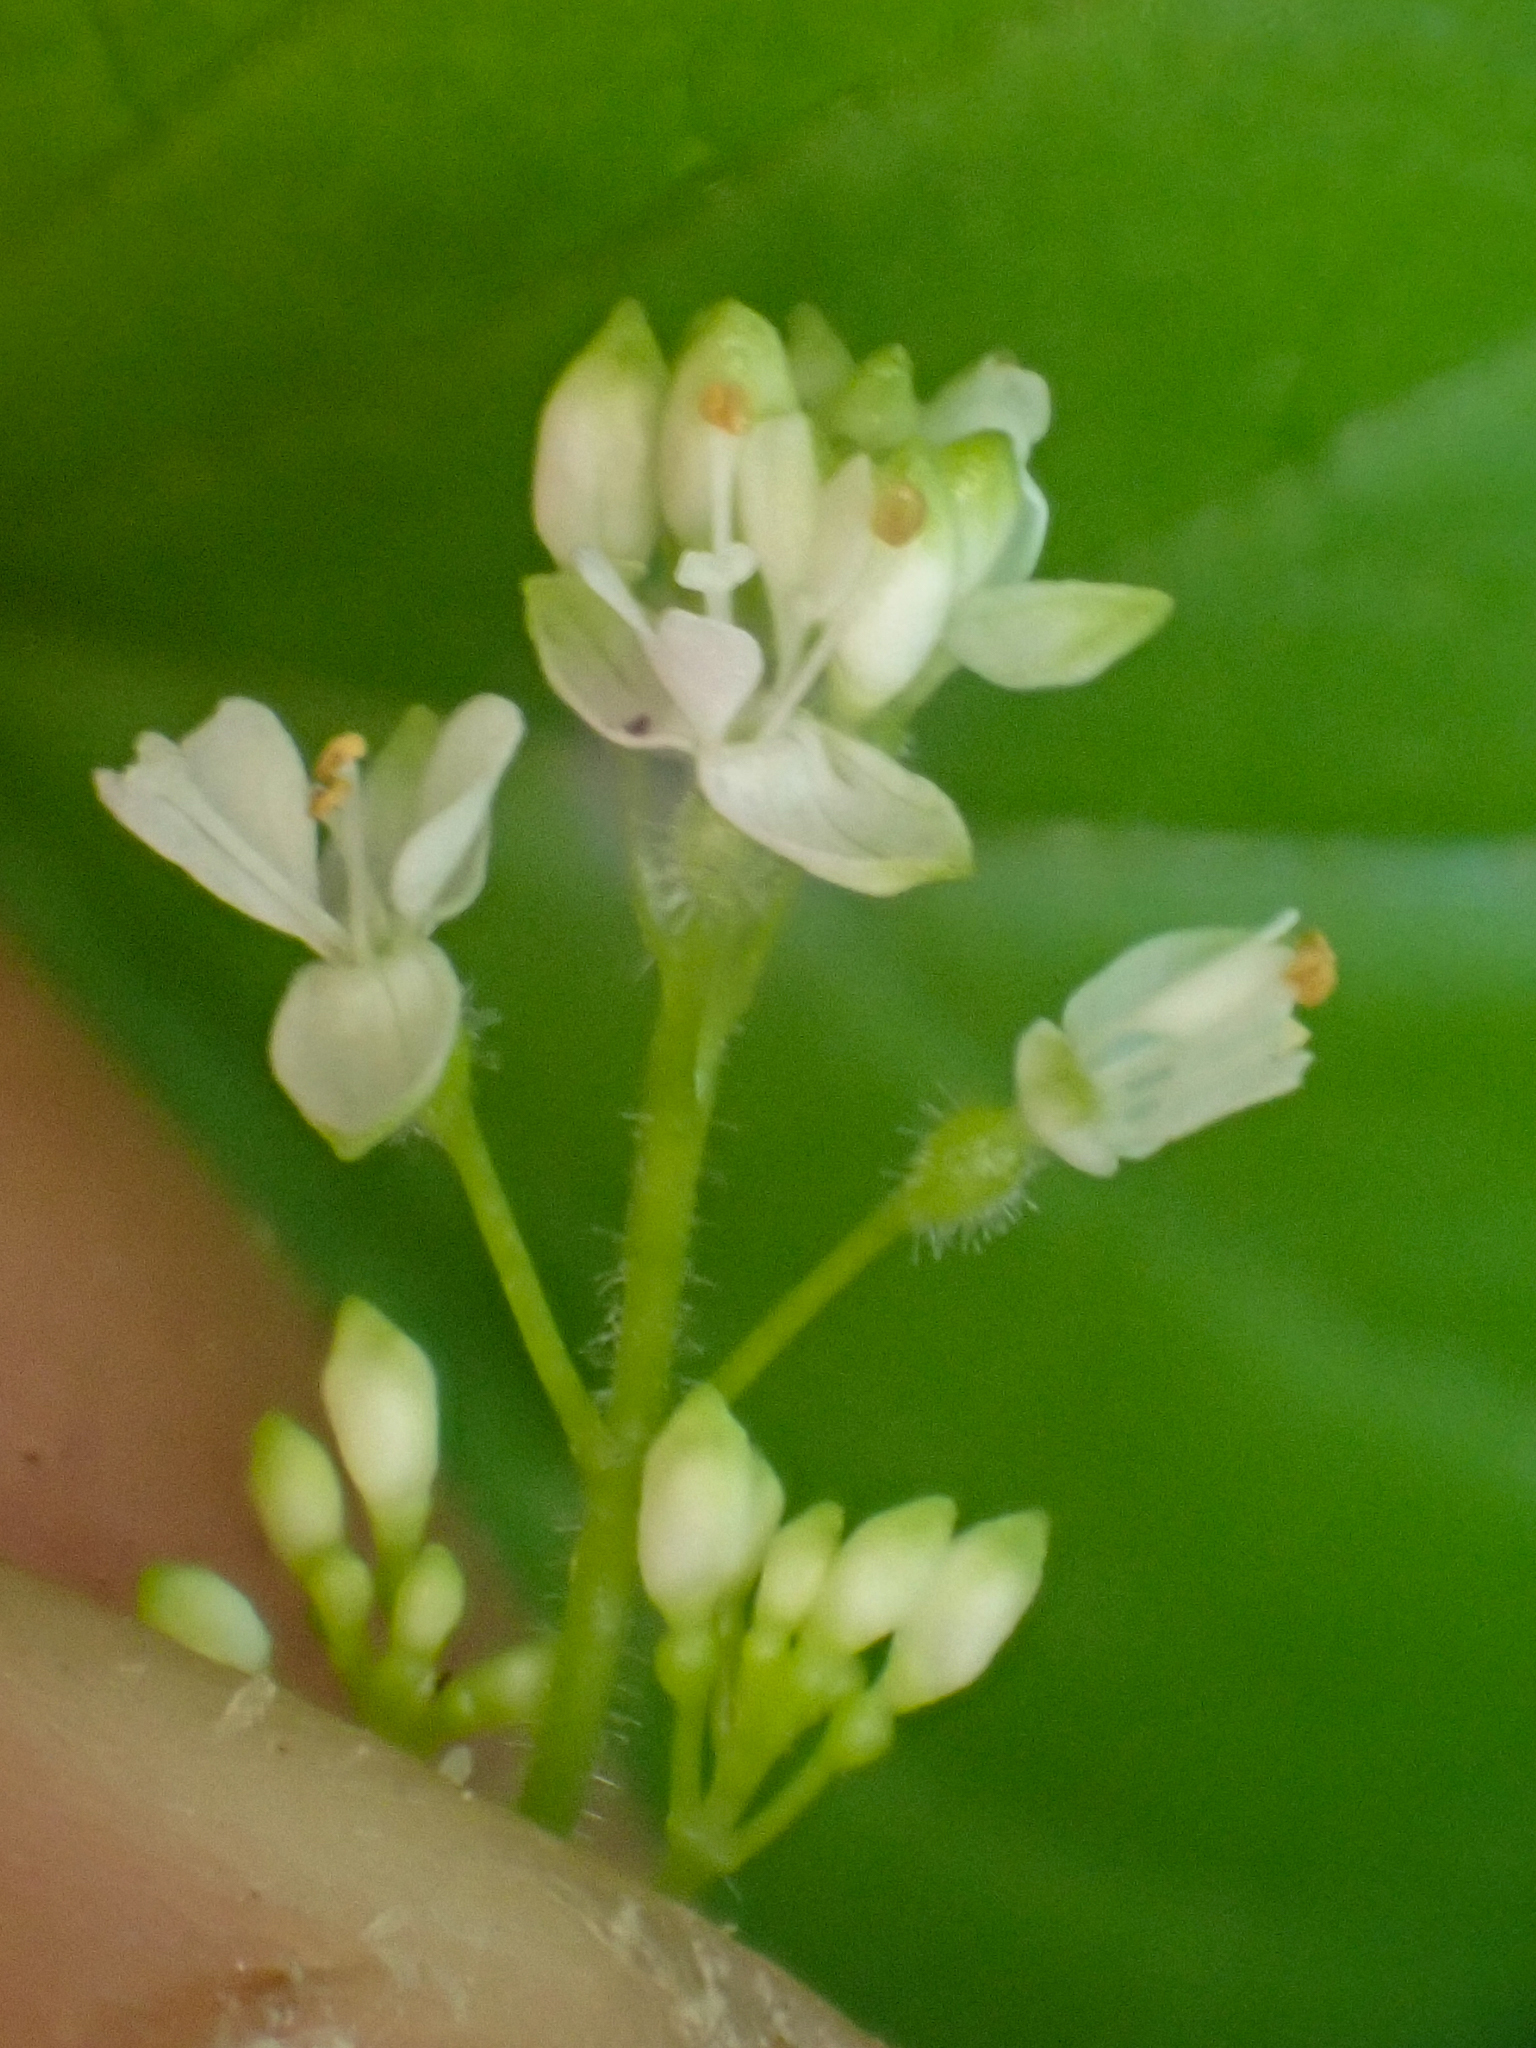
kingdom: Plantae
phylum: Tracheophyta
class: Magnoliopsida
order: Myrtales
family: Onagraceae
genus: Circaea
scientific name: Circaea alpina
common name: Alpine enchanter's-nightshade
